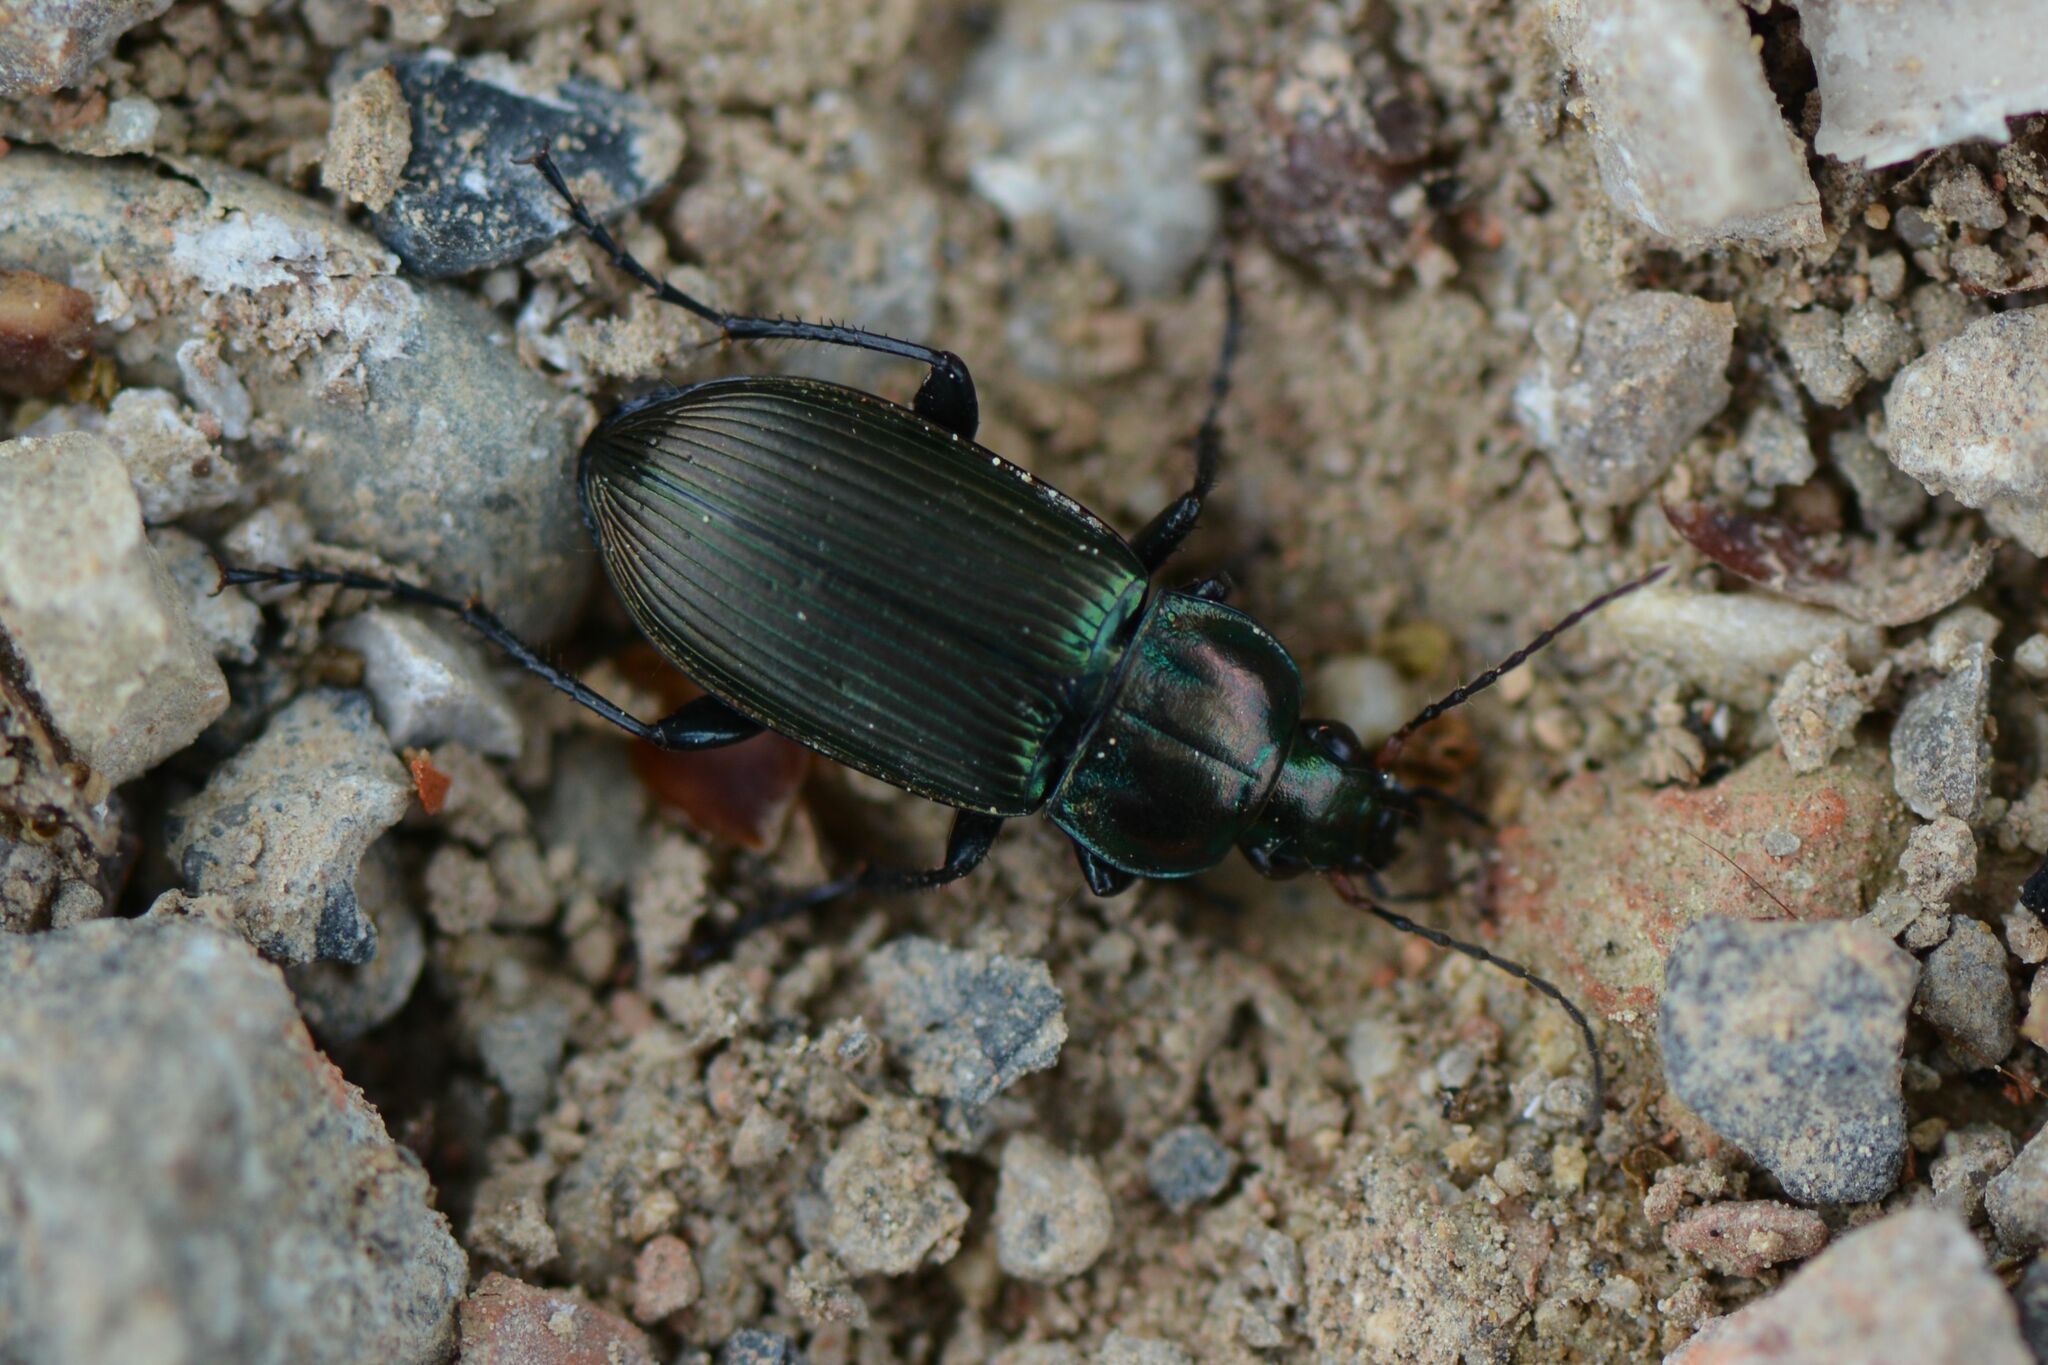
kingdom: Animalia
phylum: Arthropoda
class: Insecta
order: Coleoptera
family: Carabidae
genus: Poecilus
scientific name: Poecilus cupreus
